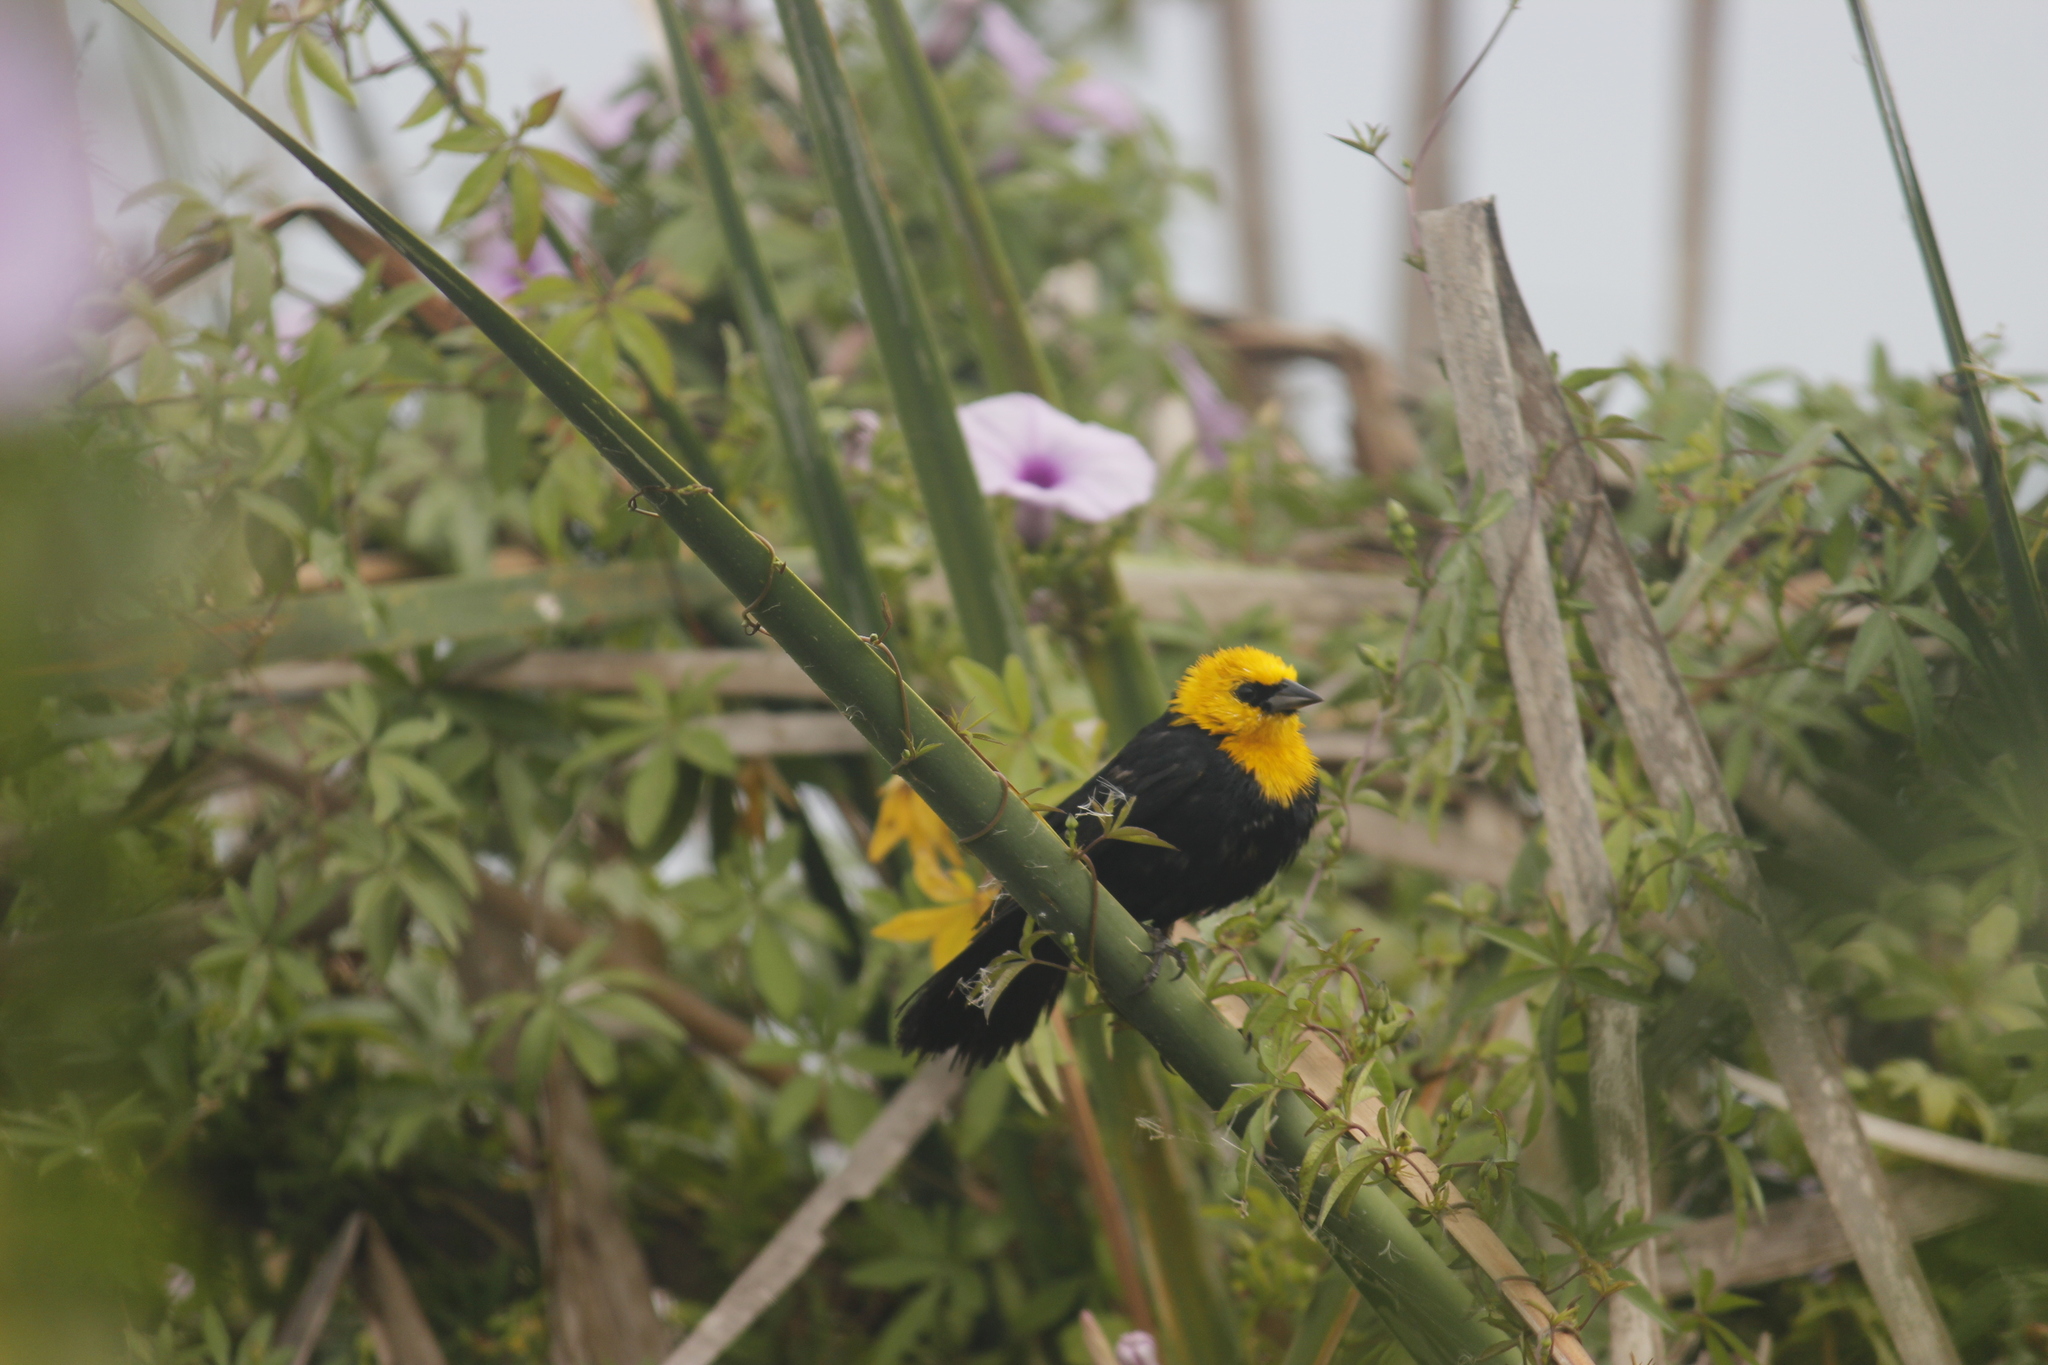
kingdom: Animalia
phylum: Chordata
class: Aves
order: Passeriformes
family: Icteridae
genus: Chrysomus
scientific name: Chrysomus icterocephalus
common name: Yellow-hooded blackbird
